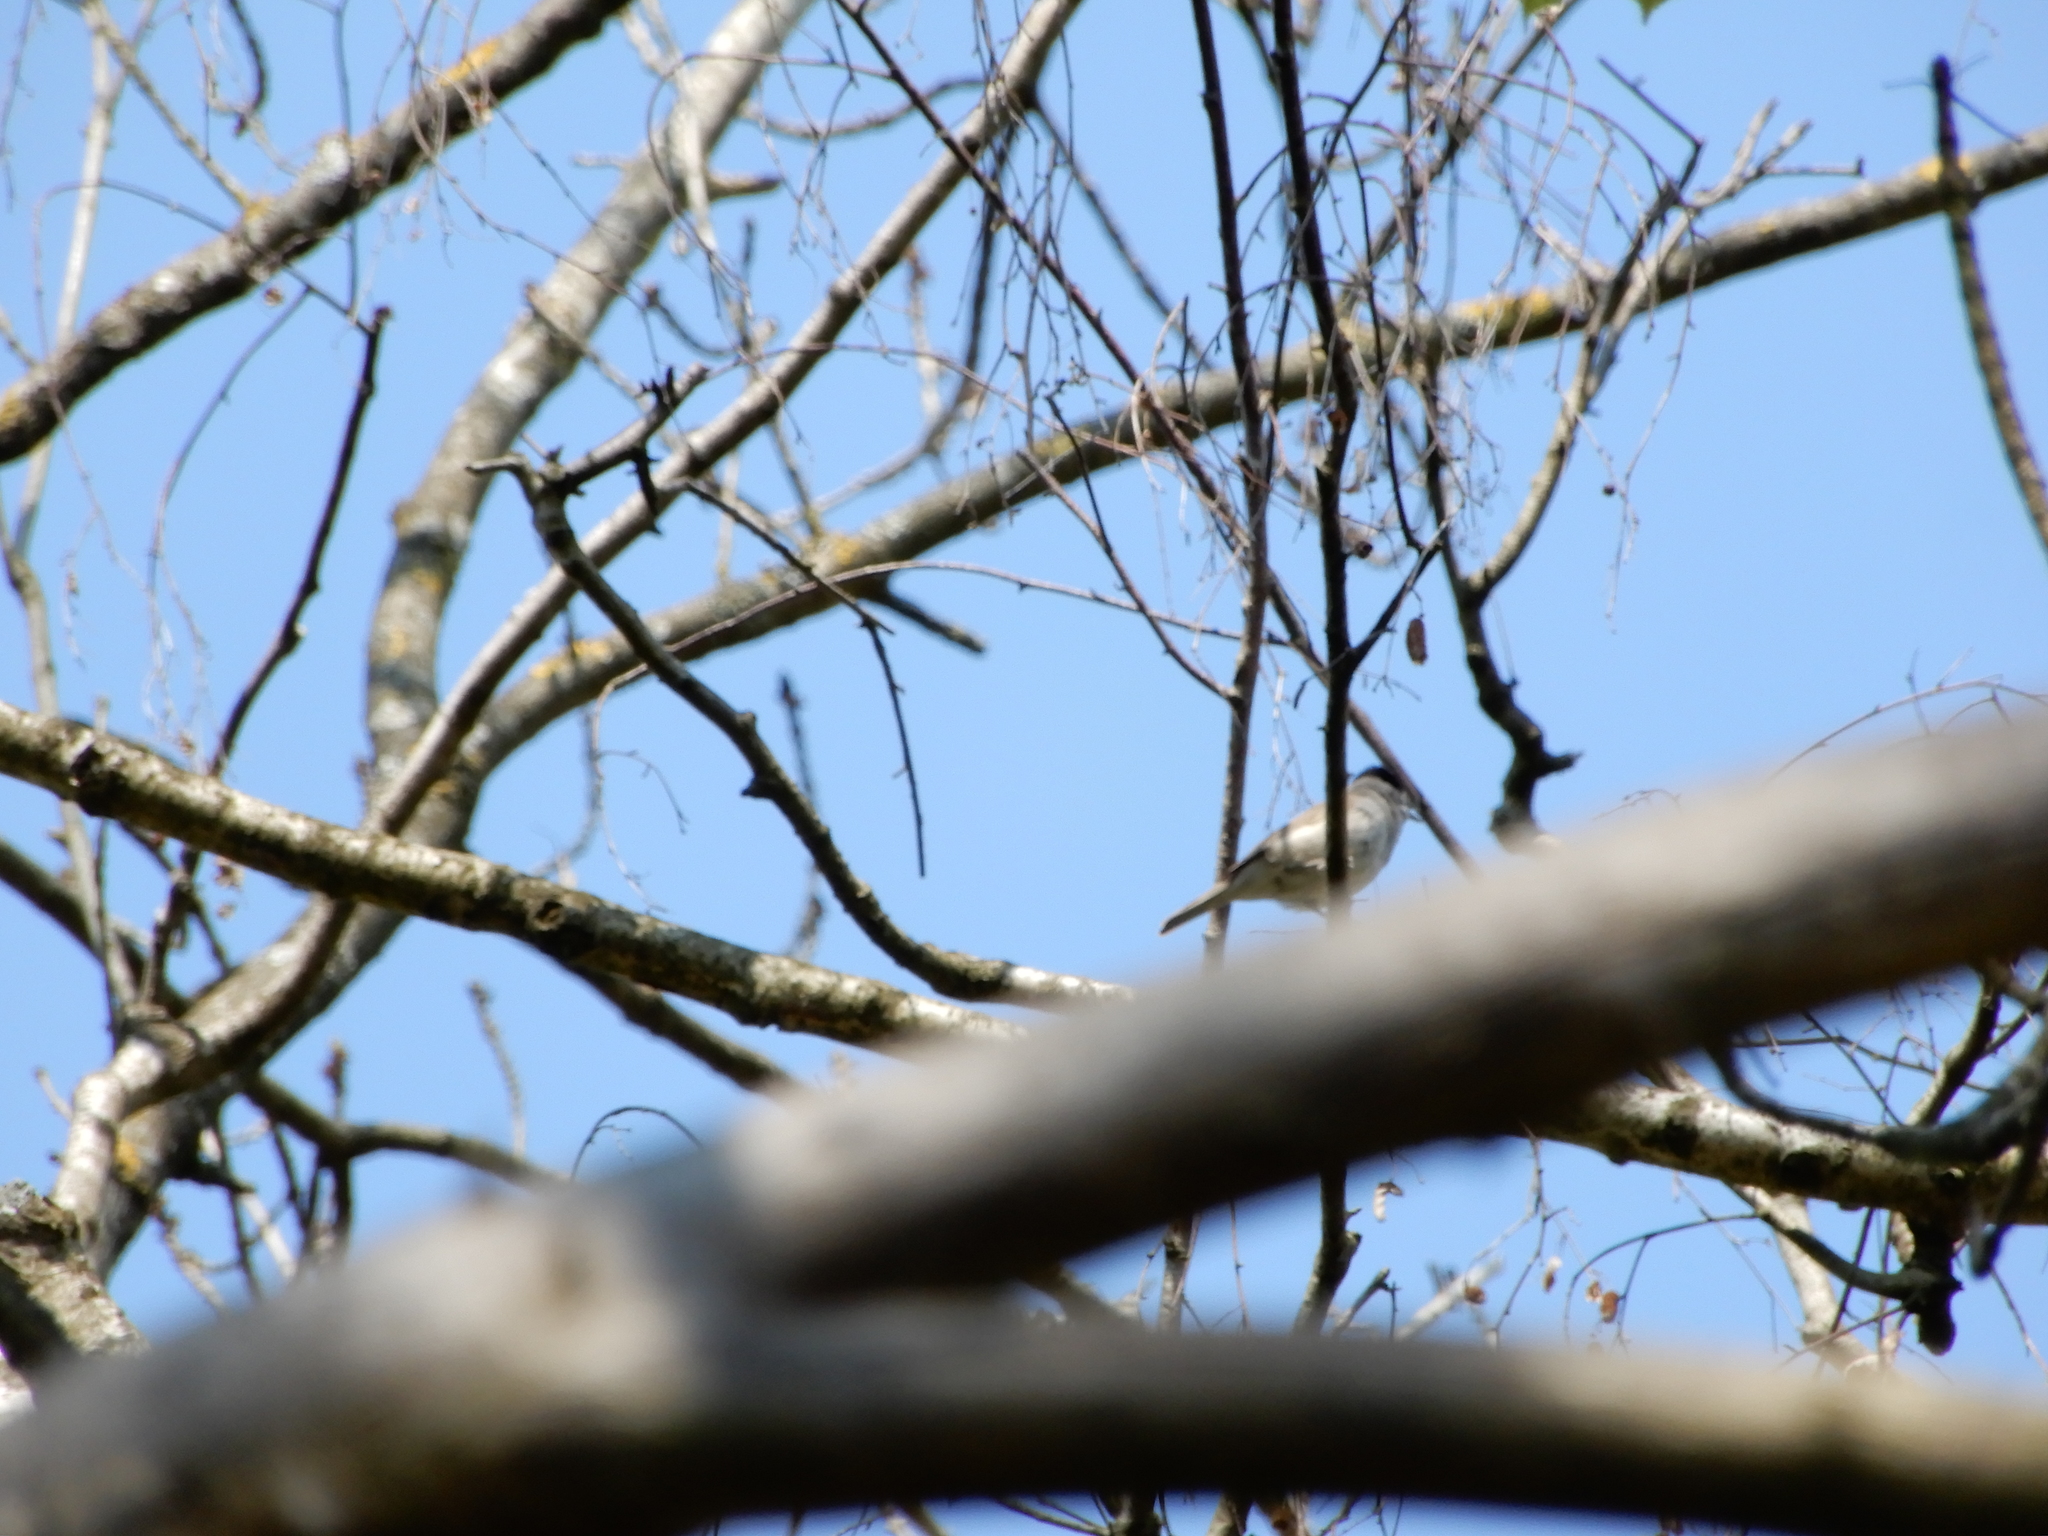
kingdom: Animalia
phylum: Chordata
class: Aves
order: Passeriformes
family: Sylviidae
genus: Sylvia
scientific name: Sylvia atricapilla
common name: Eurasian blackcap
